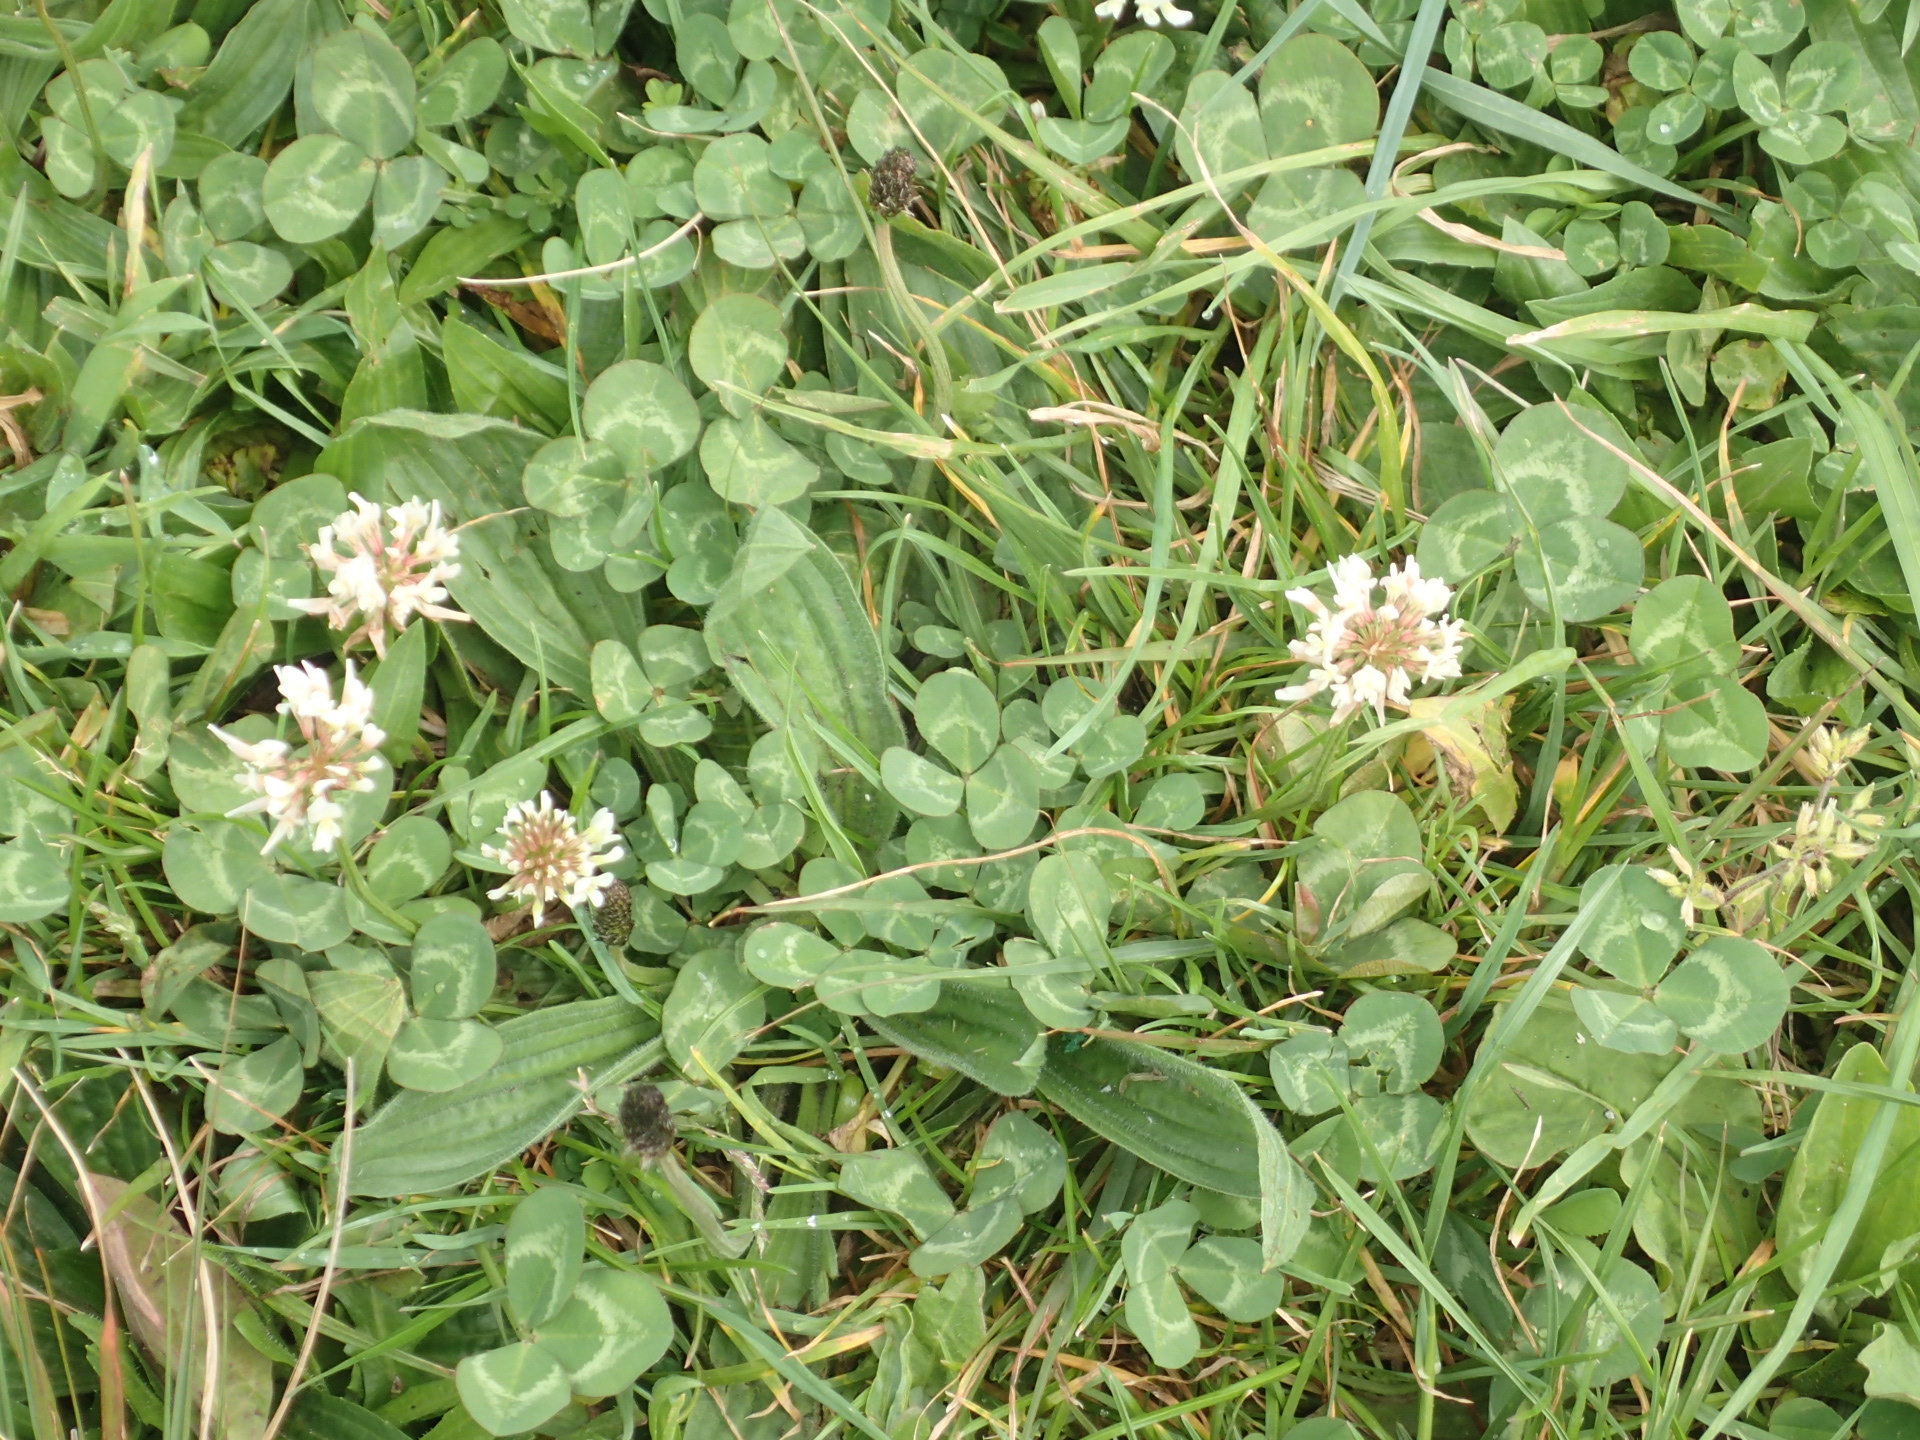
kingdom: Plantae
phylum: Tracheophyta
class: Magnoliopsida
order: Fabales
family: Fabaceae
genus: Trifolium
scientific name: Trifolium repens
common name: White clover
